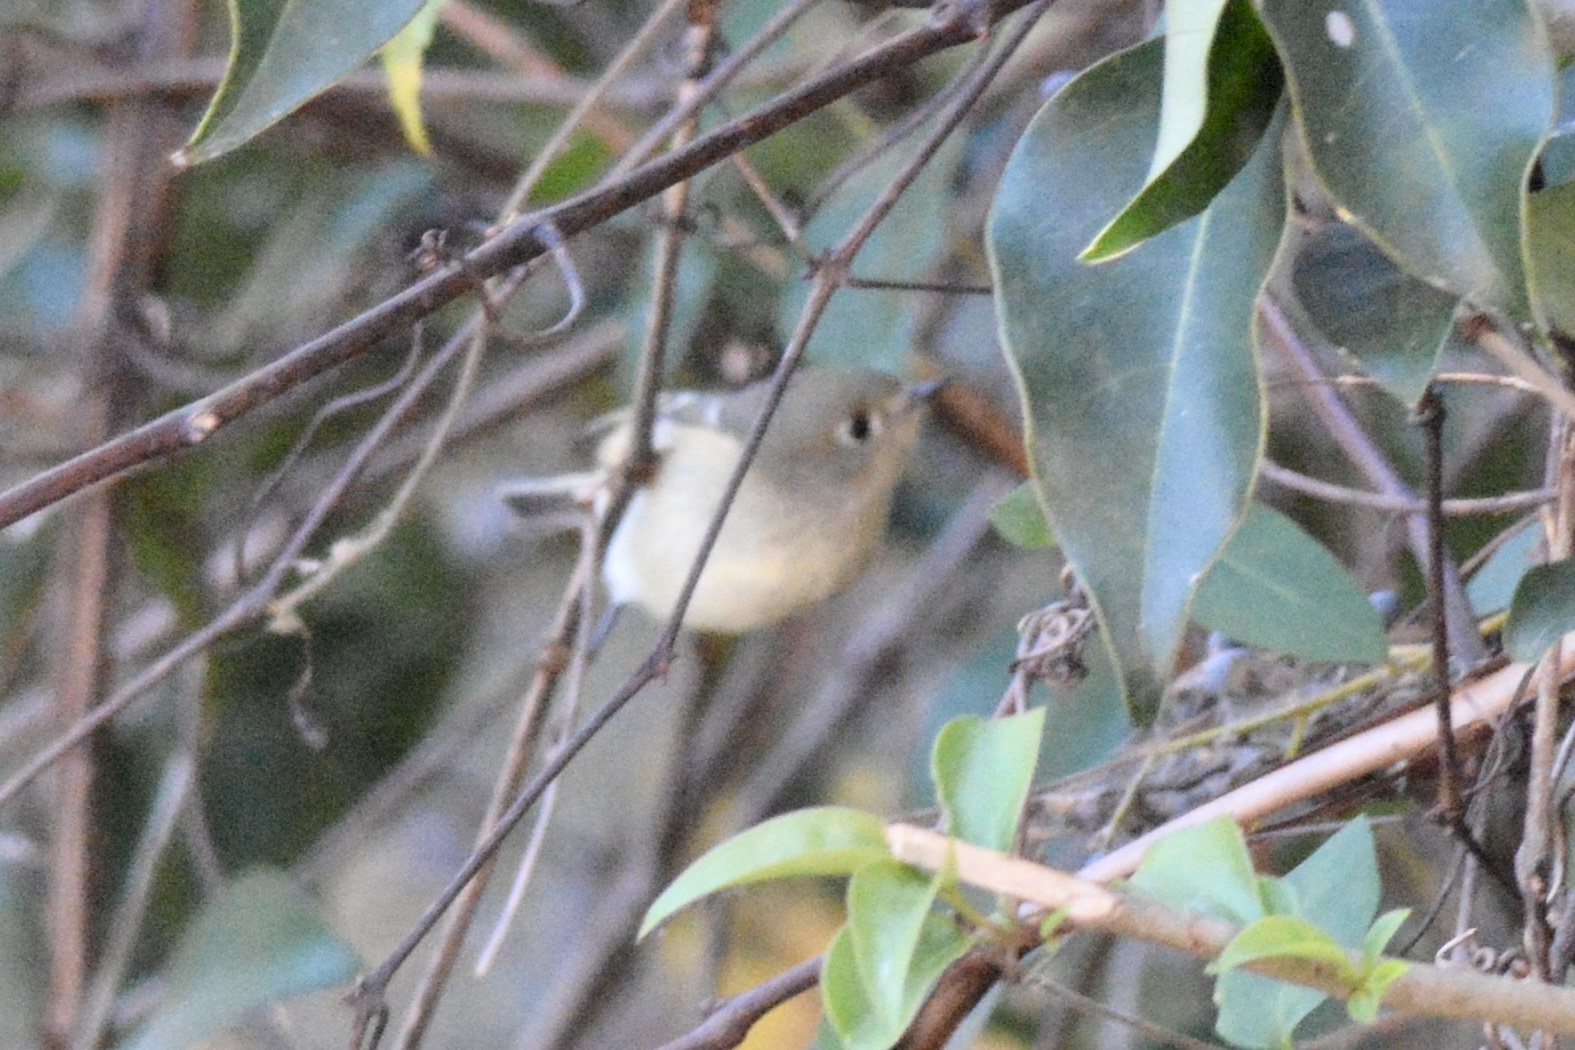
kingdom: Animalia
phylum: Chordata
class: Aves
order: Passeriformes
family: Regulidae
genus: Regulus
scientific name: Regulus calendula
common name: Ruby-crowned kinglet
